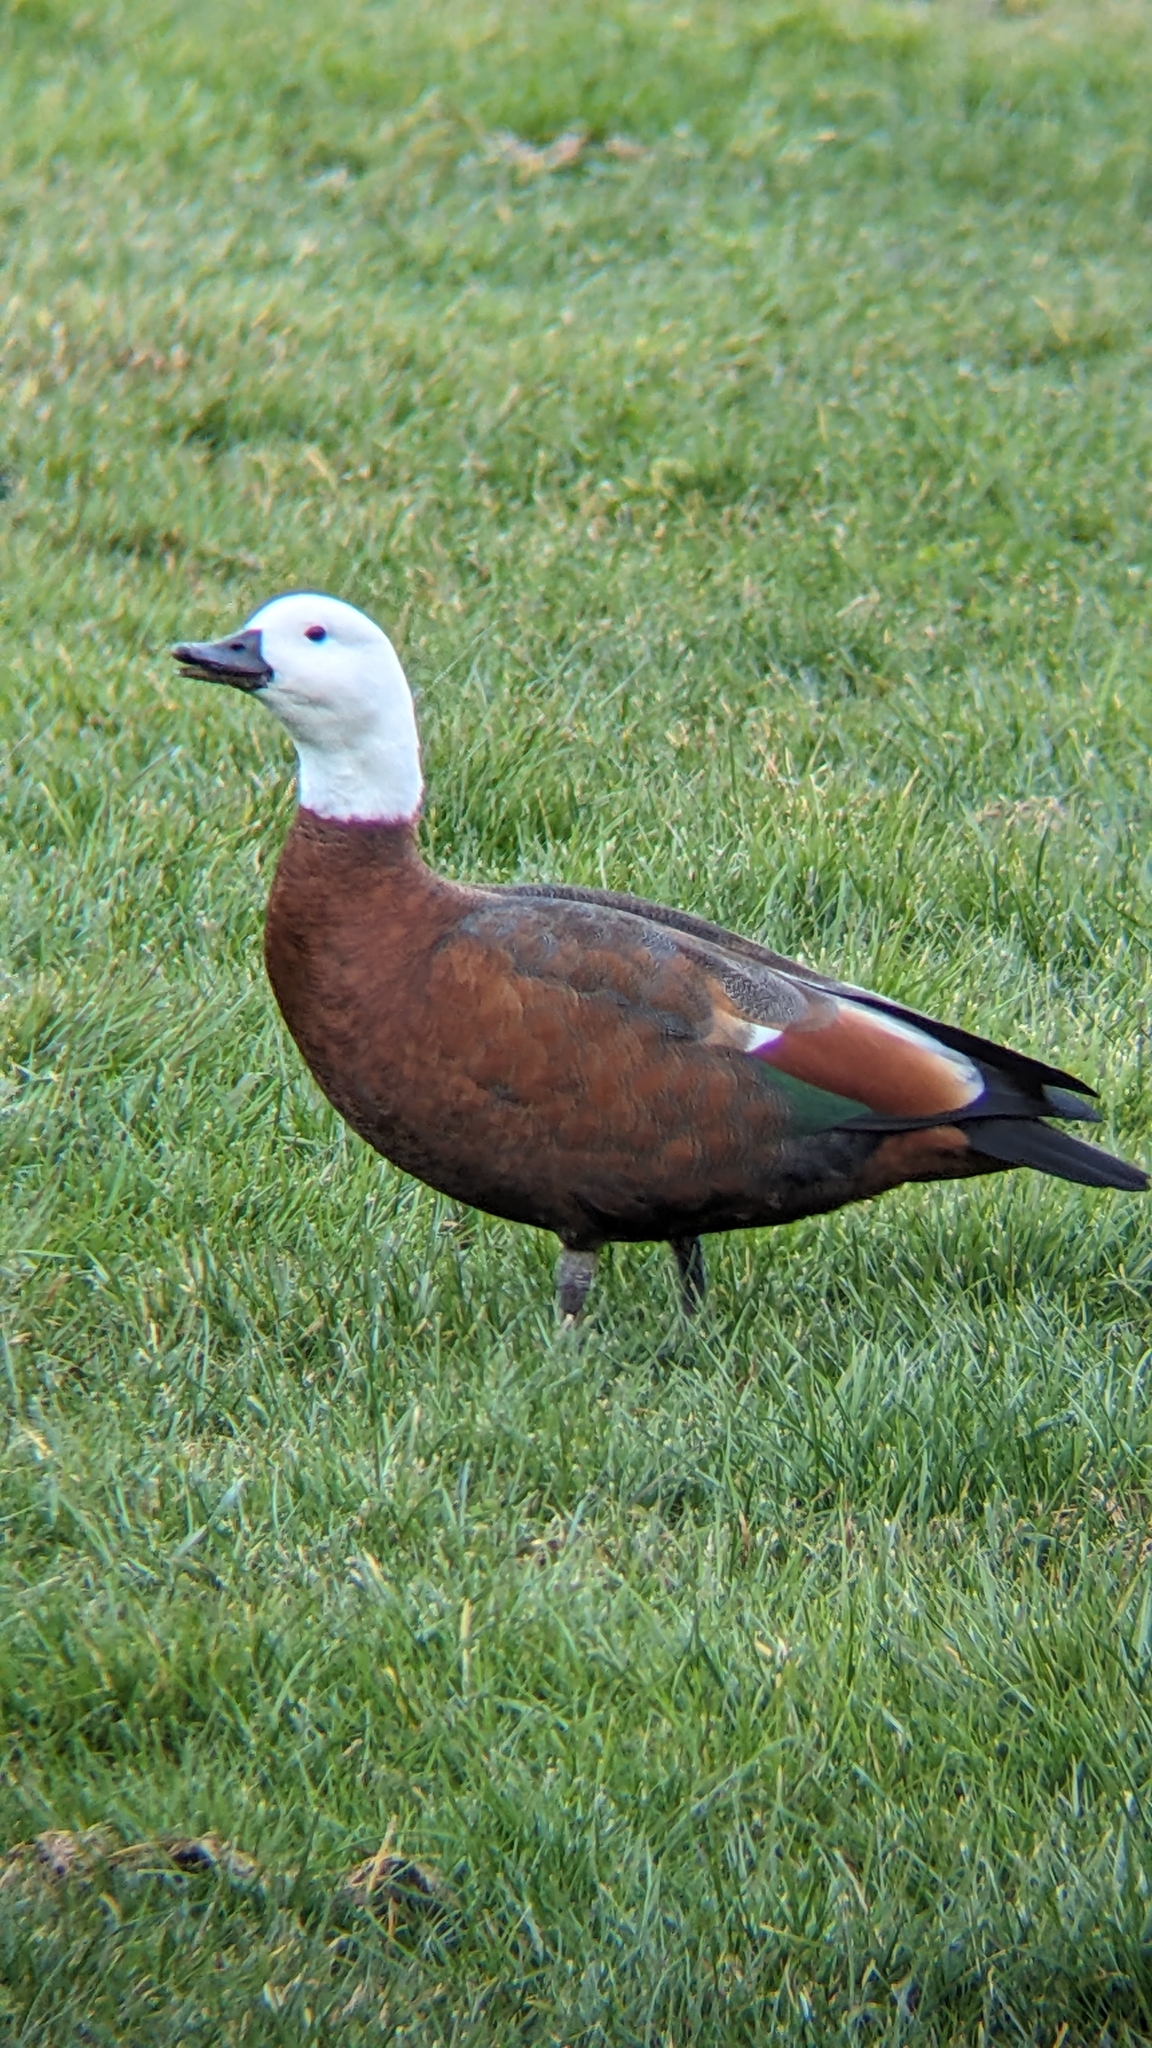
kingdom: Animalia
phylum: Chordata
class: Aves
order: Anseriformes
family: Anatidae
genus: Tadorna
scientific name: Tadorna variegata
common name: Paradise shelduck
